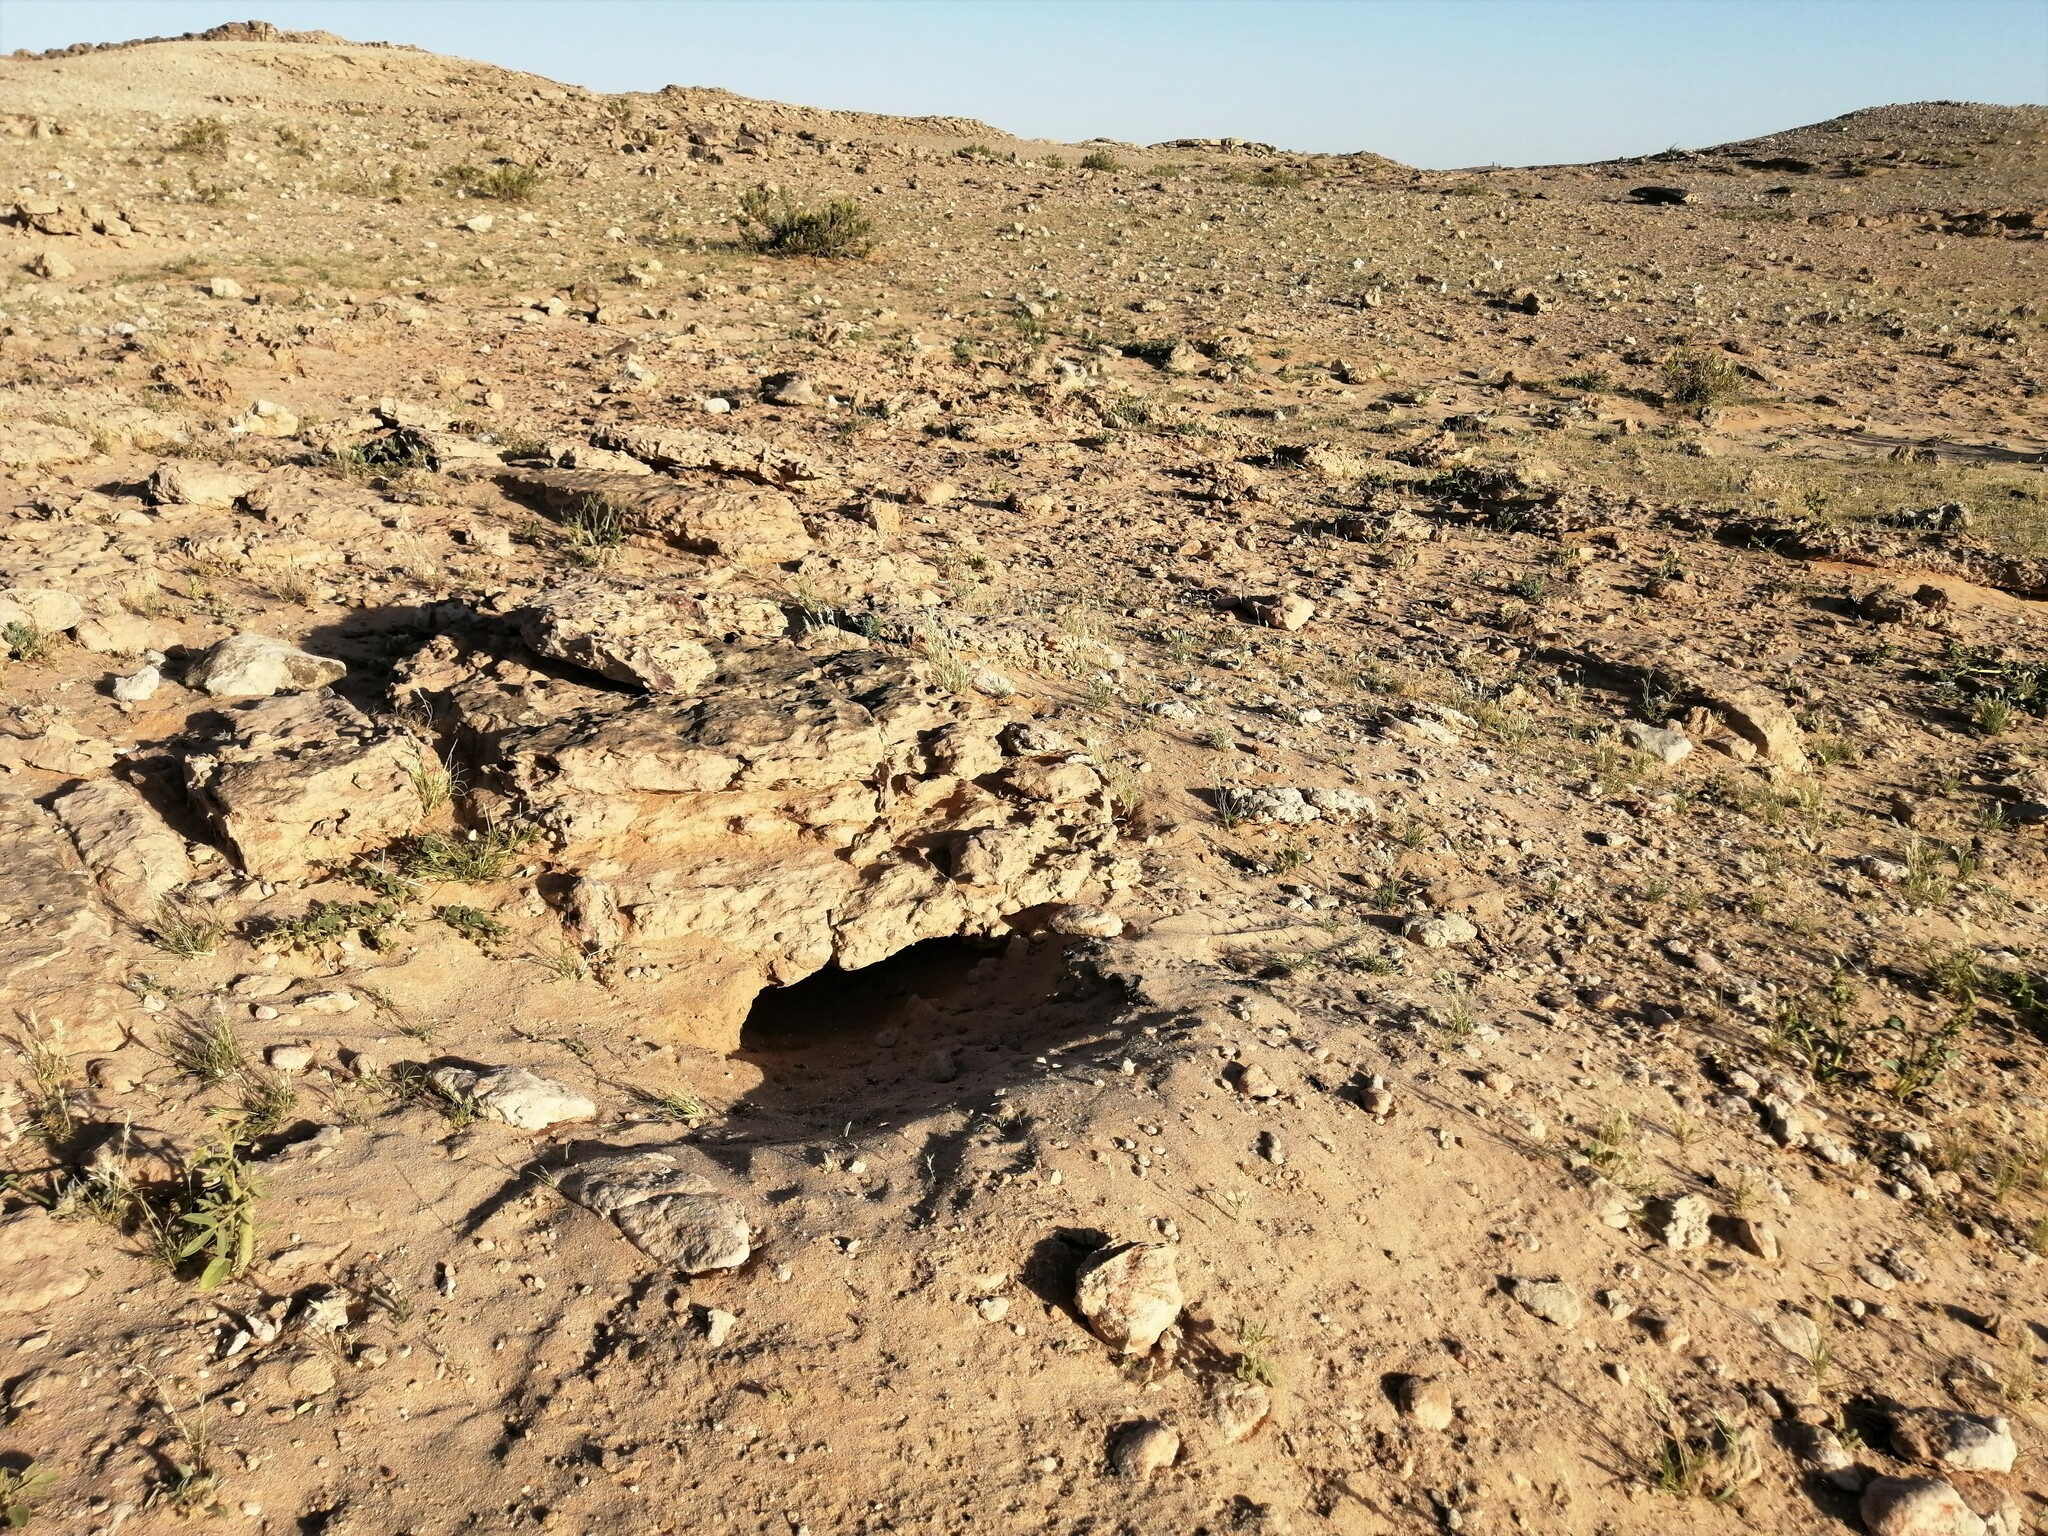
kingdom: Animalia
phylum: Chordata
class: Squamata
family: Agamidae
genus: Uromastyx
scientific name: Uromastyx aegyptia
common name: Egyptian mastigure
